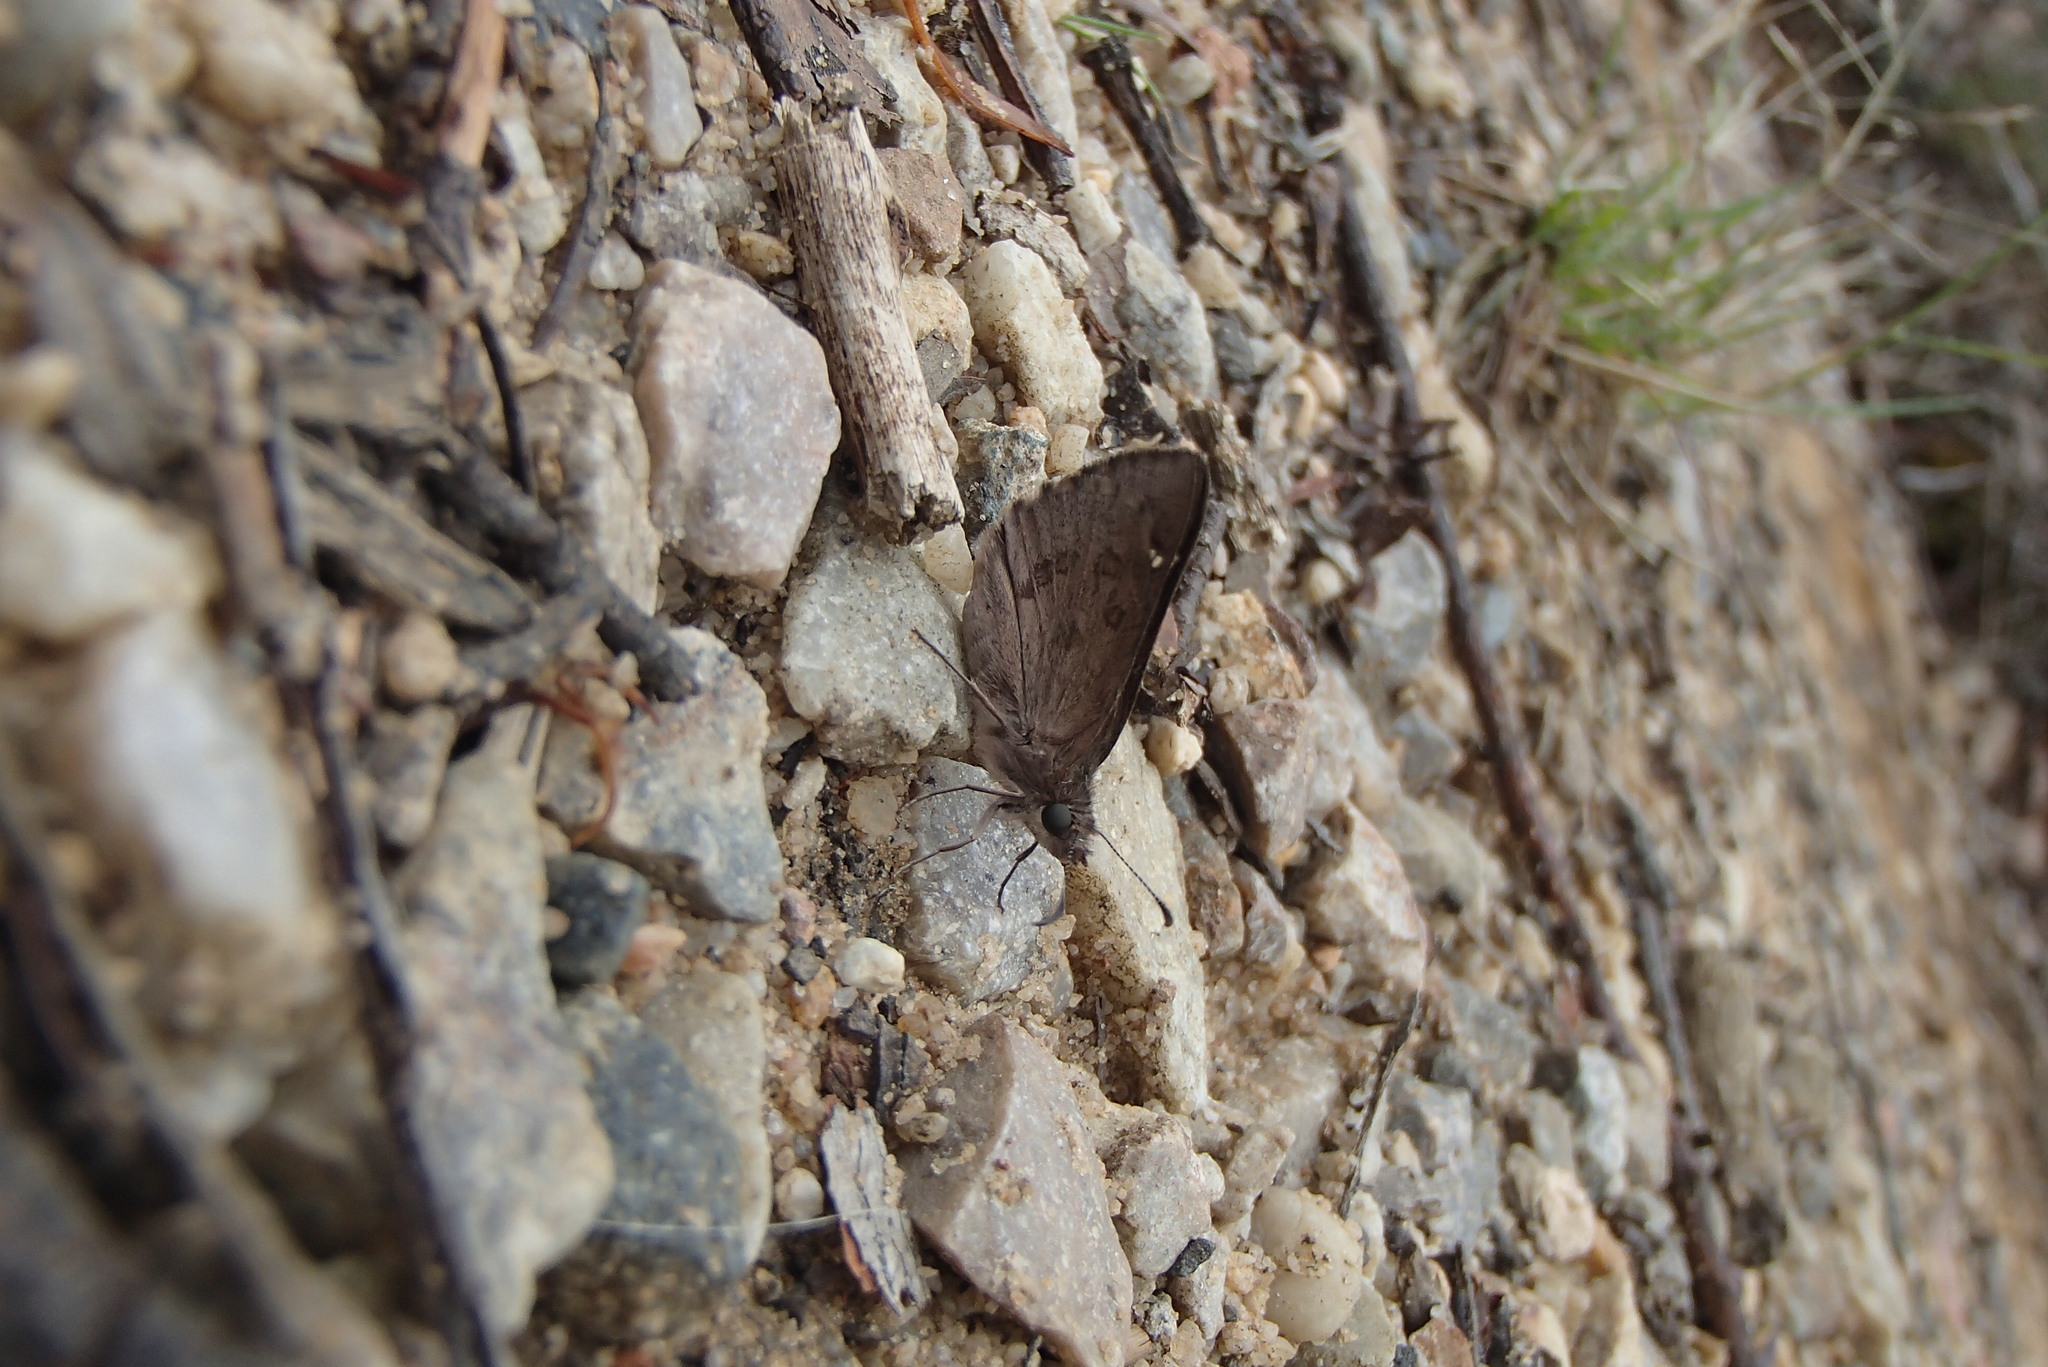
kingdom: Animalia
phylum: Arthropoda
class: Insecta
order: Lepidoptera
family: Hesperiidae
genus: Mesodina
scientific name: Mesodina halyzia
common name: Eastern iris-skipper
